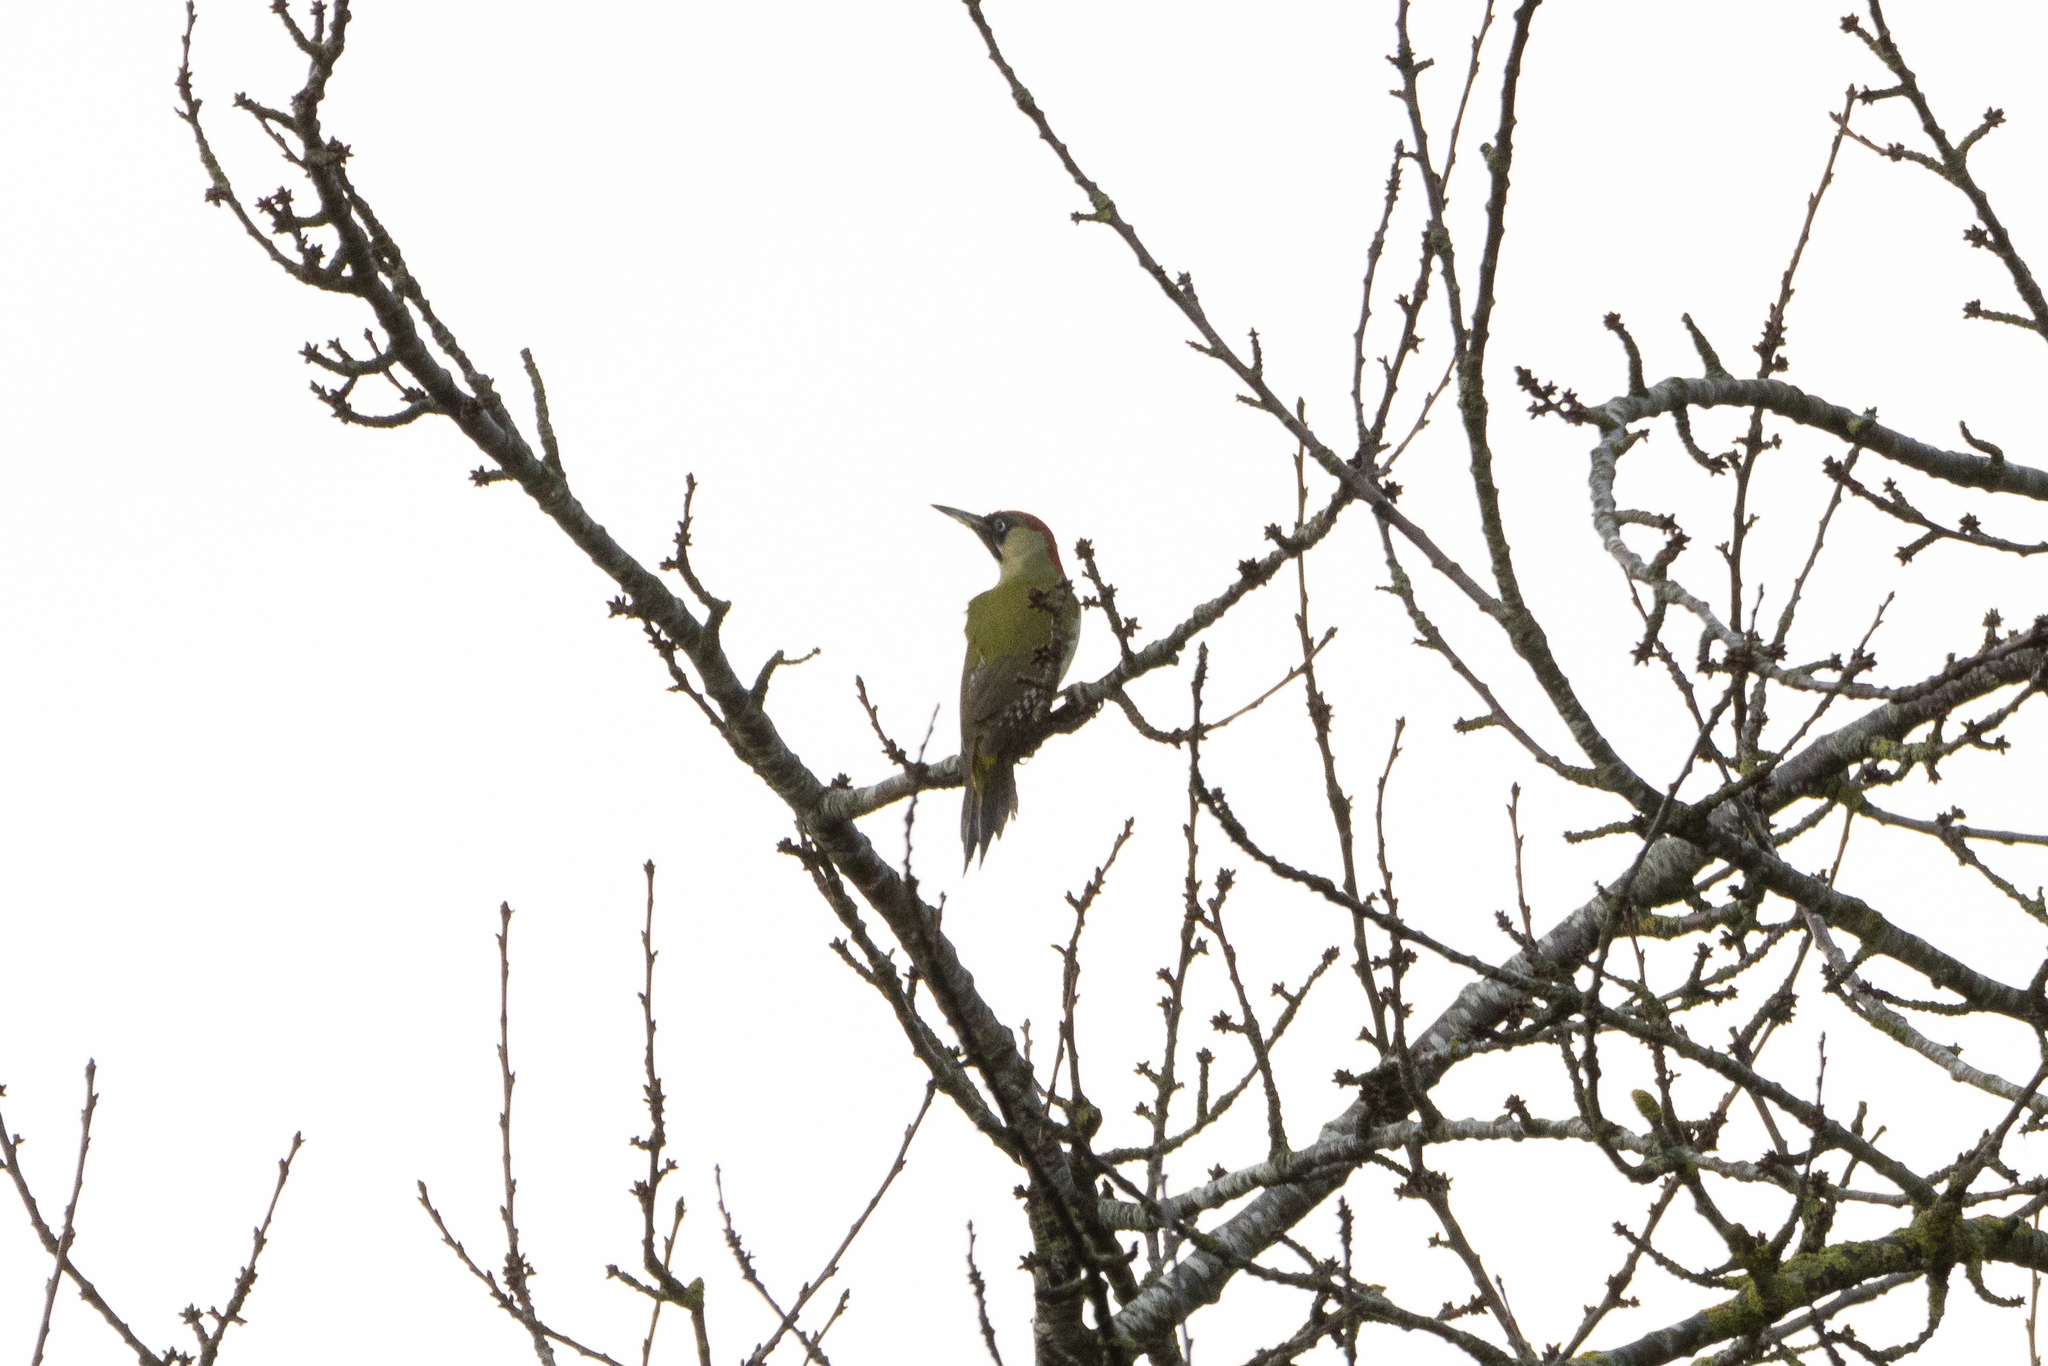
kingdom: Animalia
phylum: Chordata
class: Aves
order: Piciformes
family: Picidae
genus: Picus
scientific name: Picus viridis
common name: European green woodpecker
